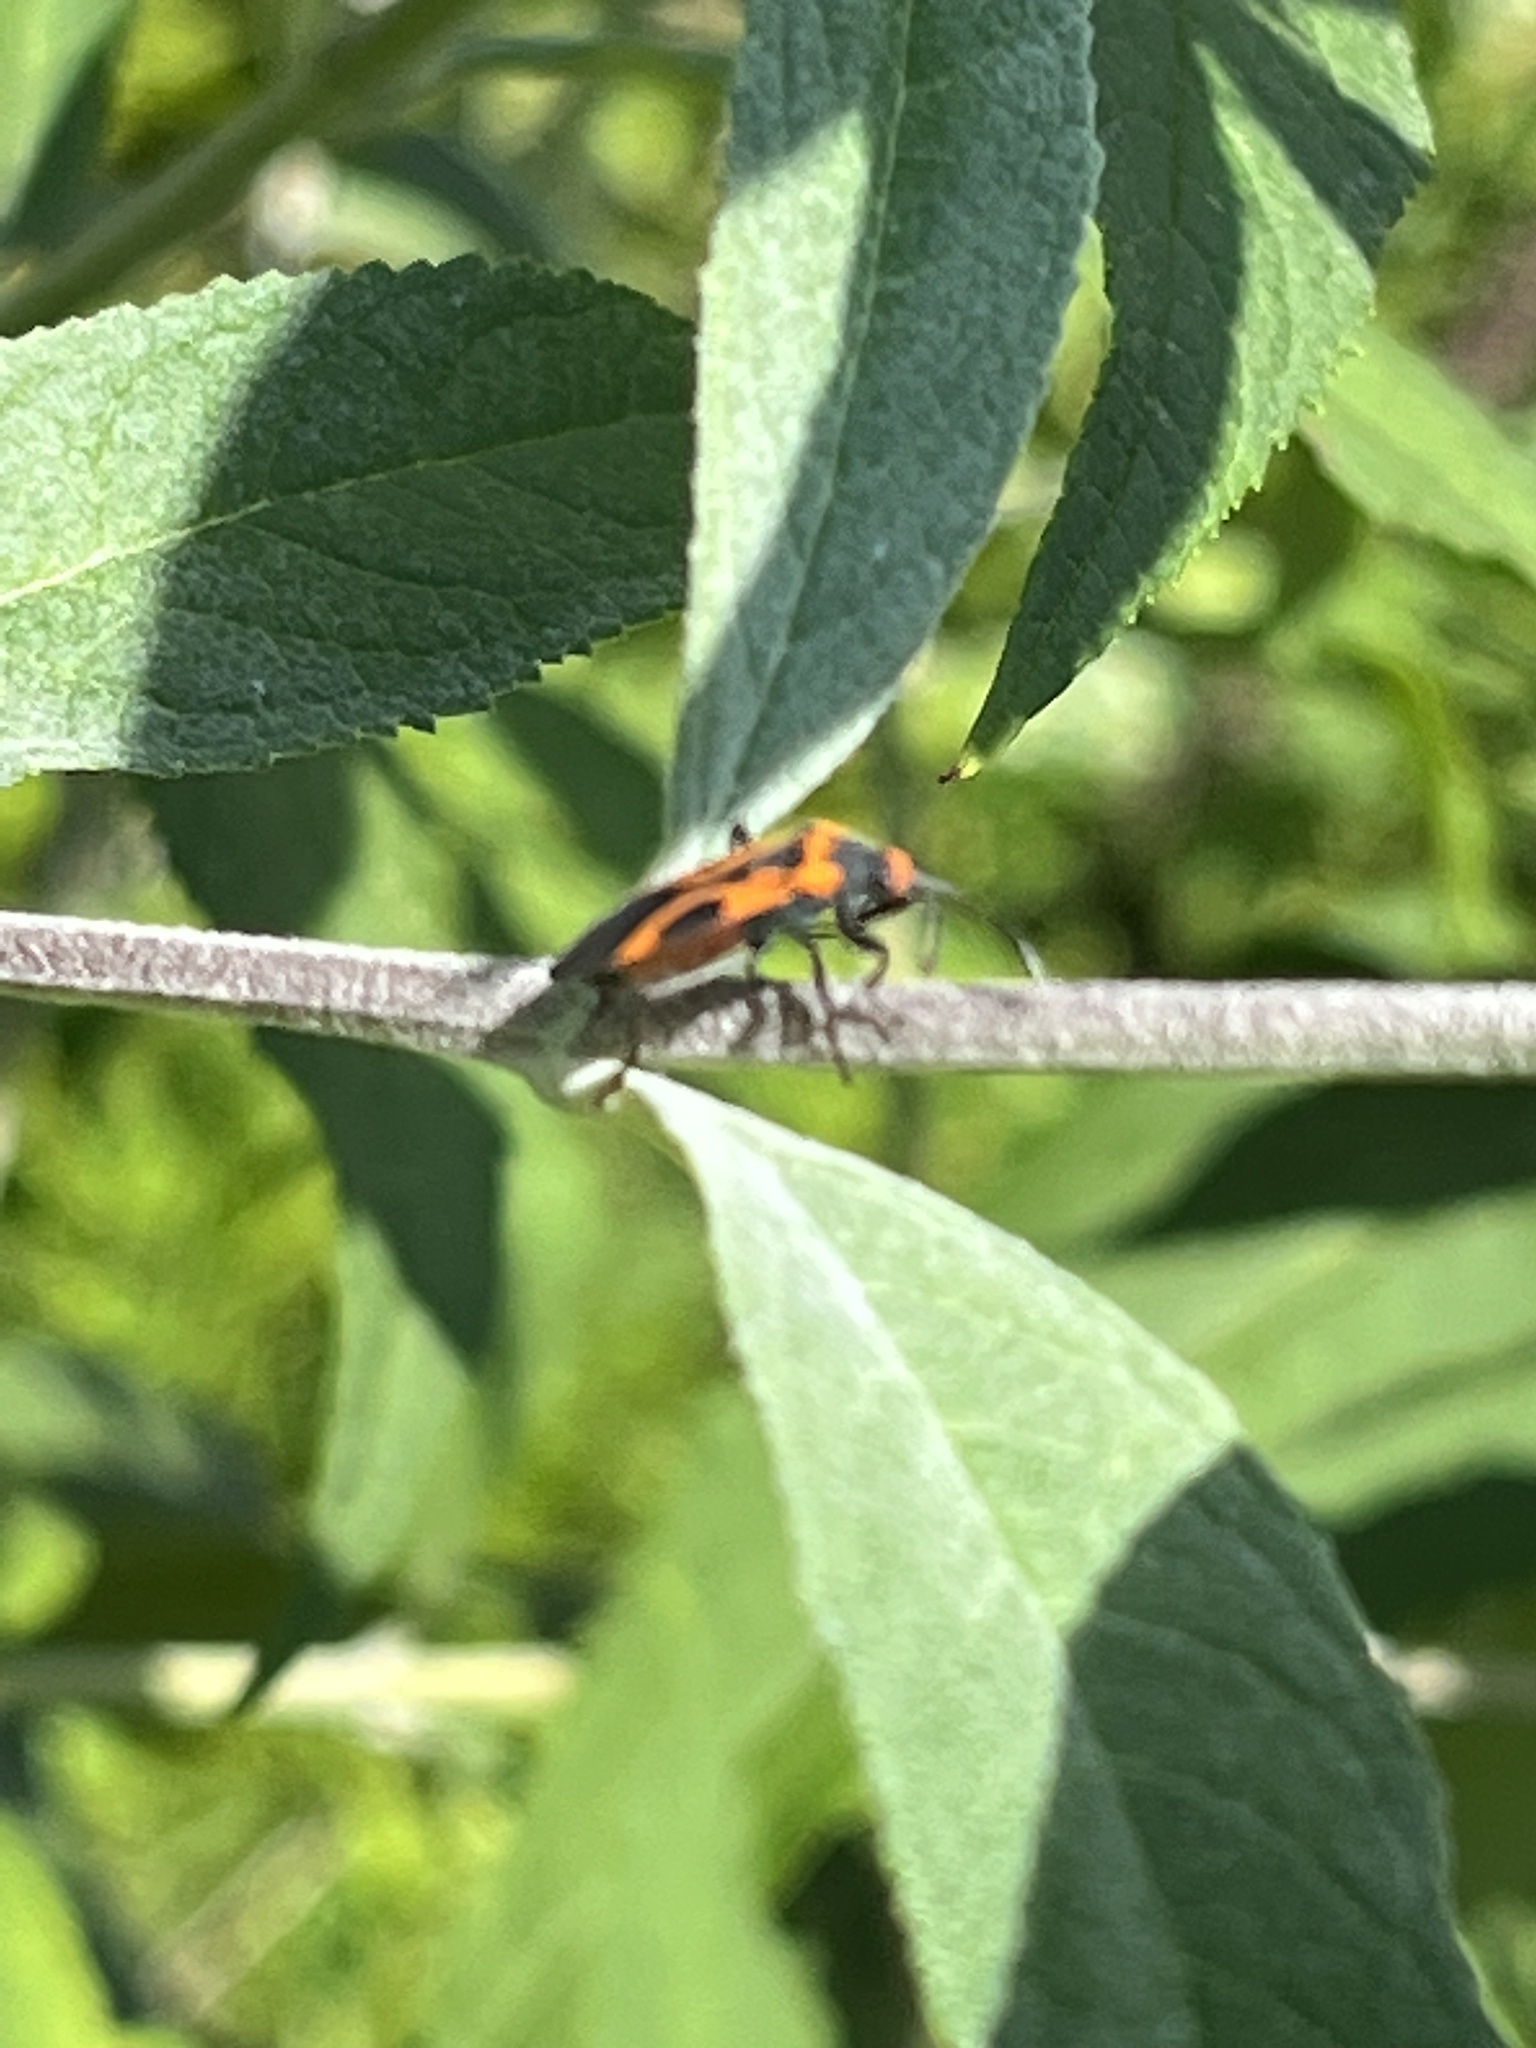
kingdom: Animalia
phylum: Arthropoda
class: Insecta
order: Hemiptera
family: Lygaeidae
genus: Lygaeus
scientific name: Lygaeus turcicus
